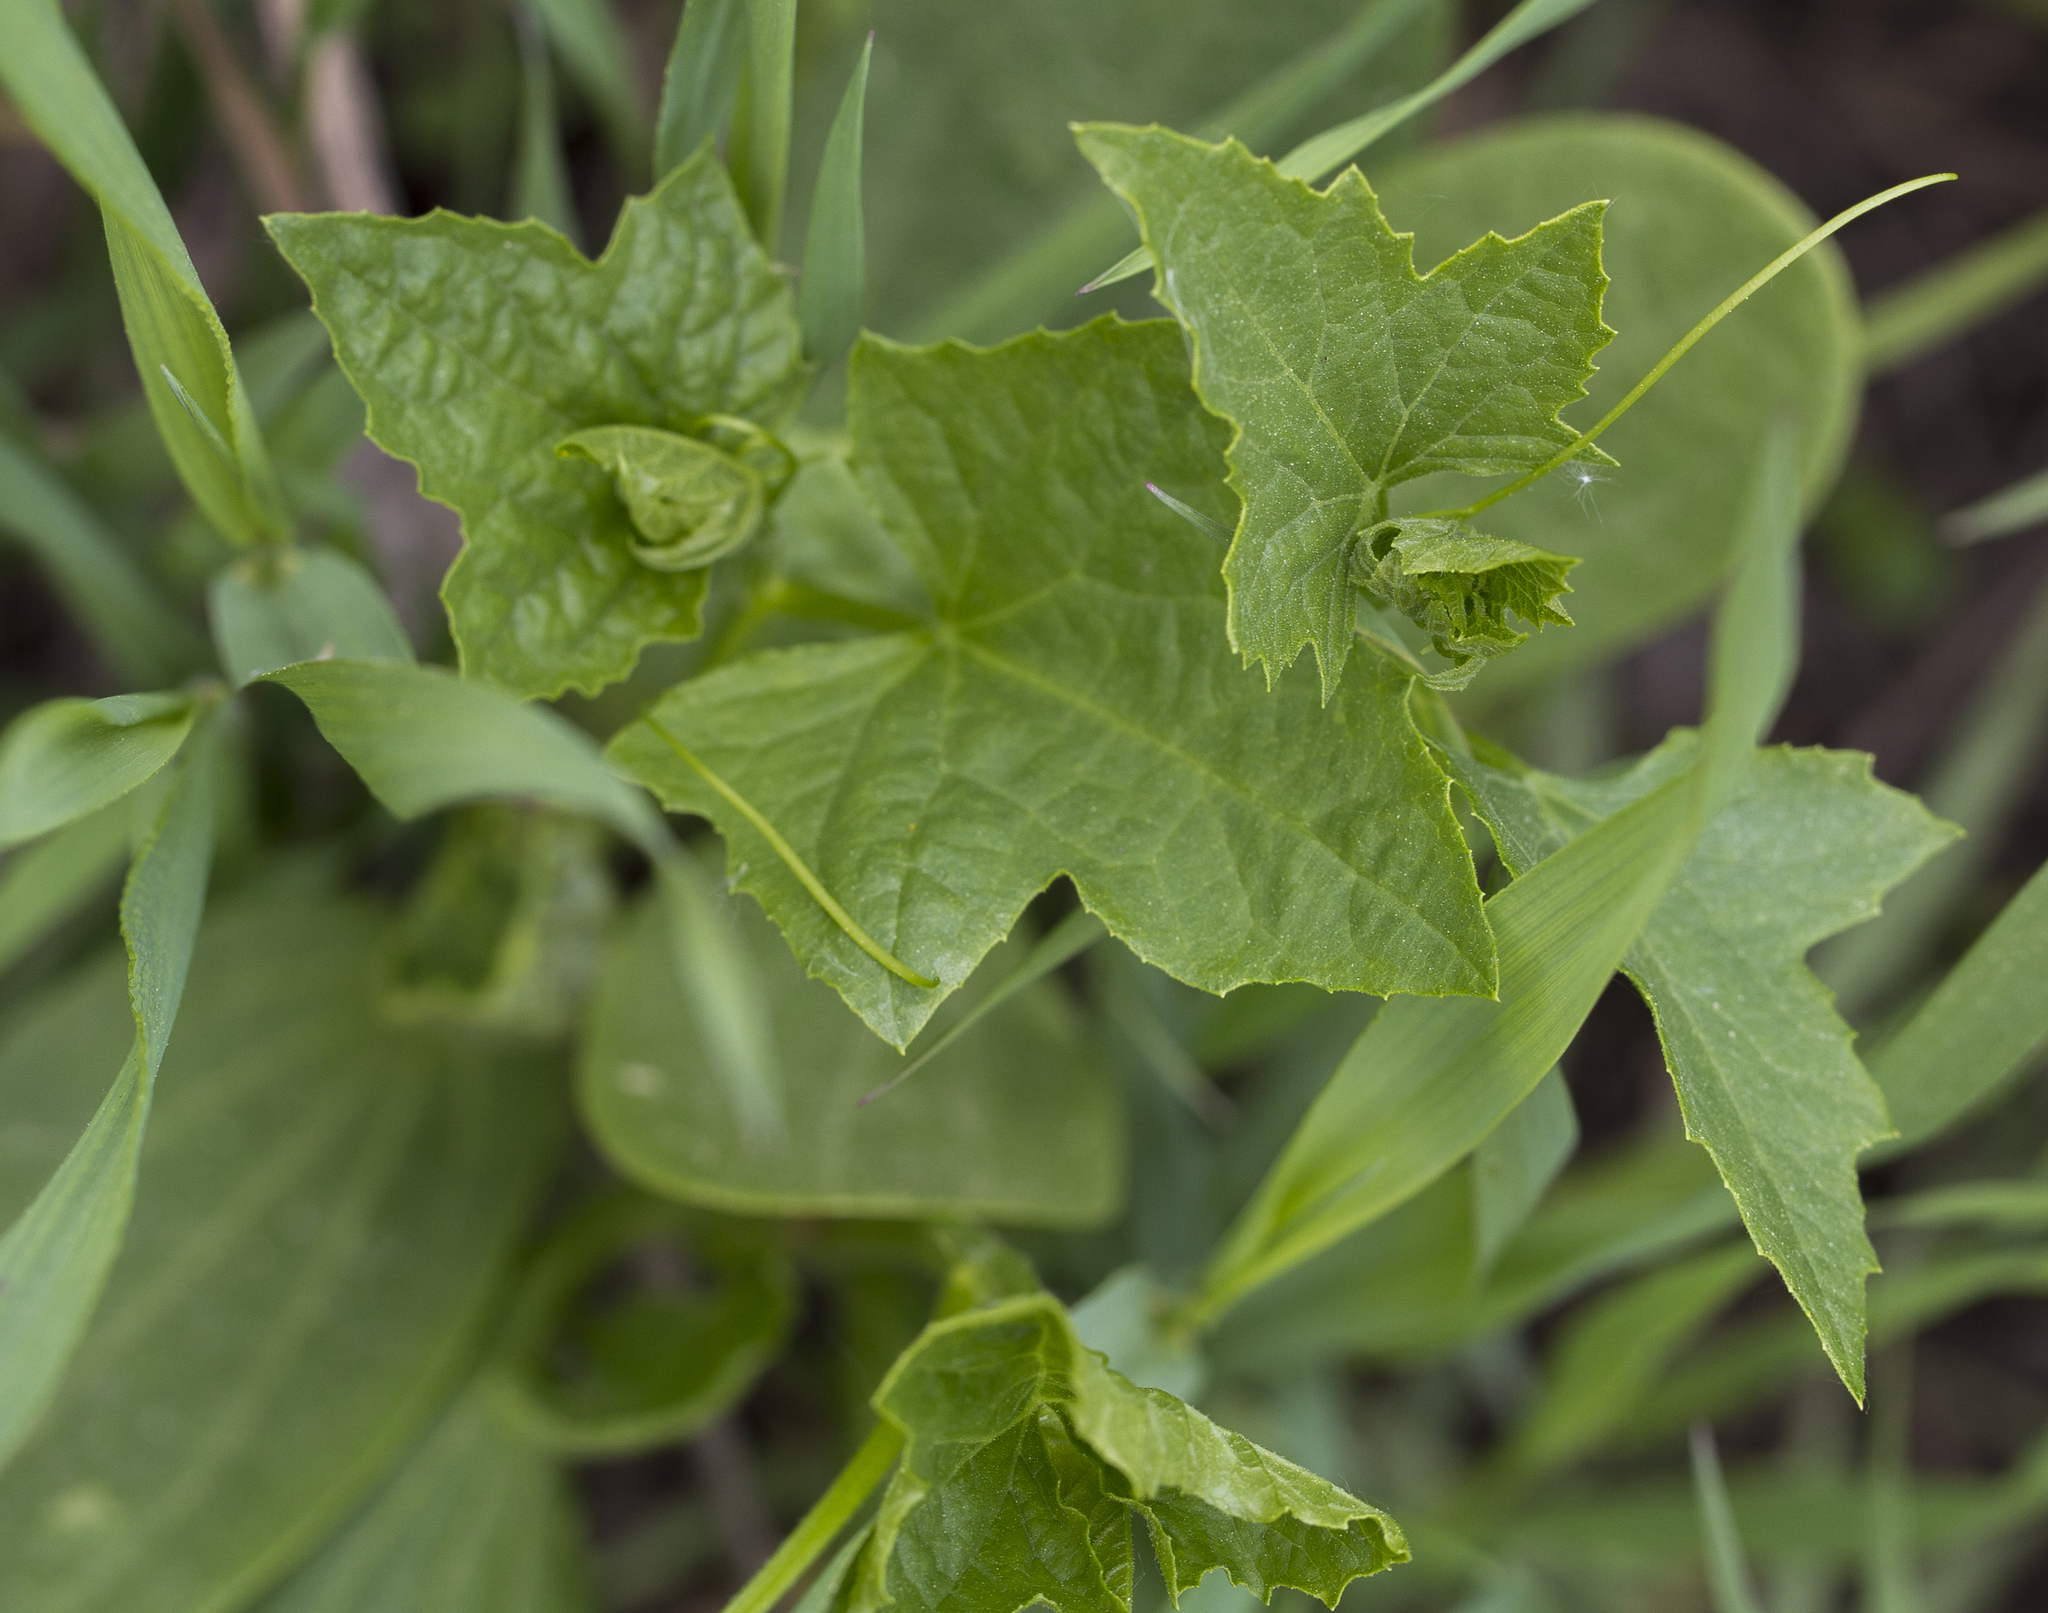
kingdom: Plantae
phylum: Tracheophyta
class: Magnoliopsida
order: Cucurbitales
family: Cucurbitaceae
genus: Echinocystis
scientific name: Echinocystis lobata
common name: Wild cucumber
